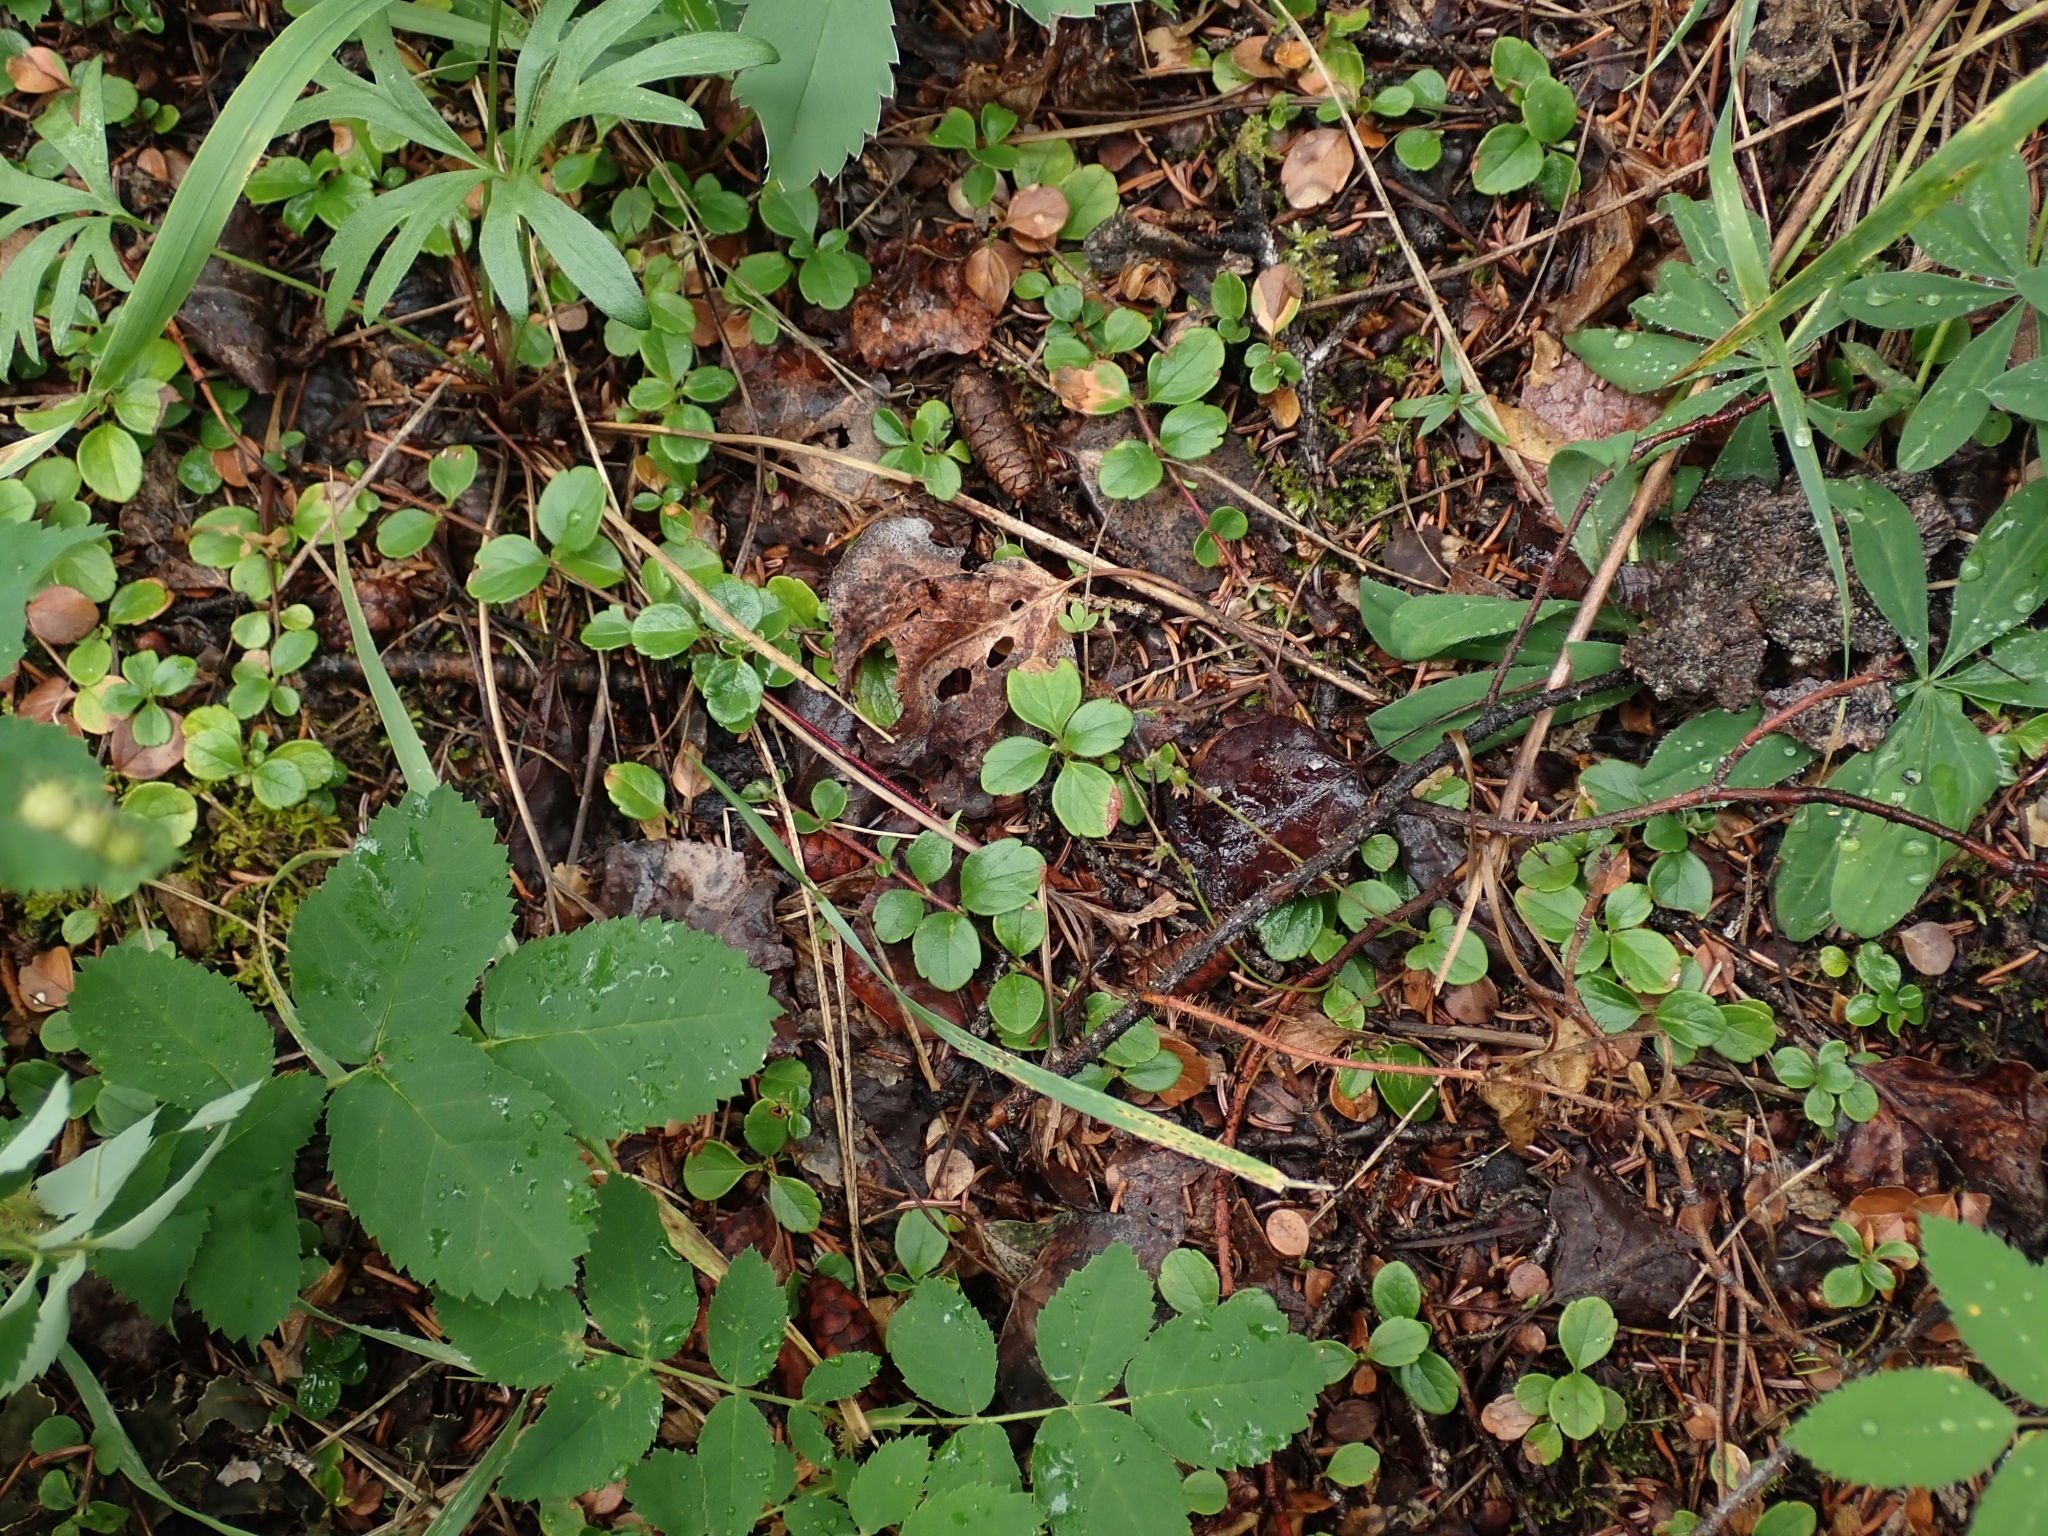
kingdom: Plantae
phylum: Tracheophyta
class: Magnoliopsida
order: Dipsacales
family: Caprifoliaceae
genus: Linnaea
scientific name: Linnaea borealis
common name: Twinflower
